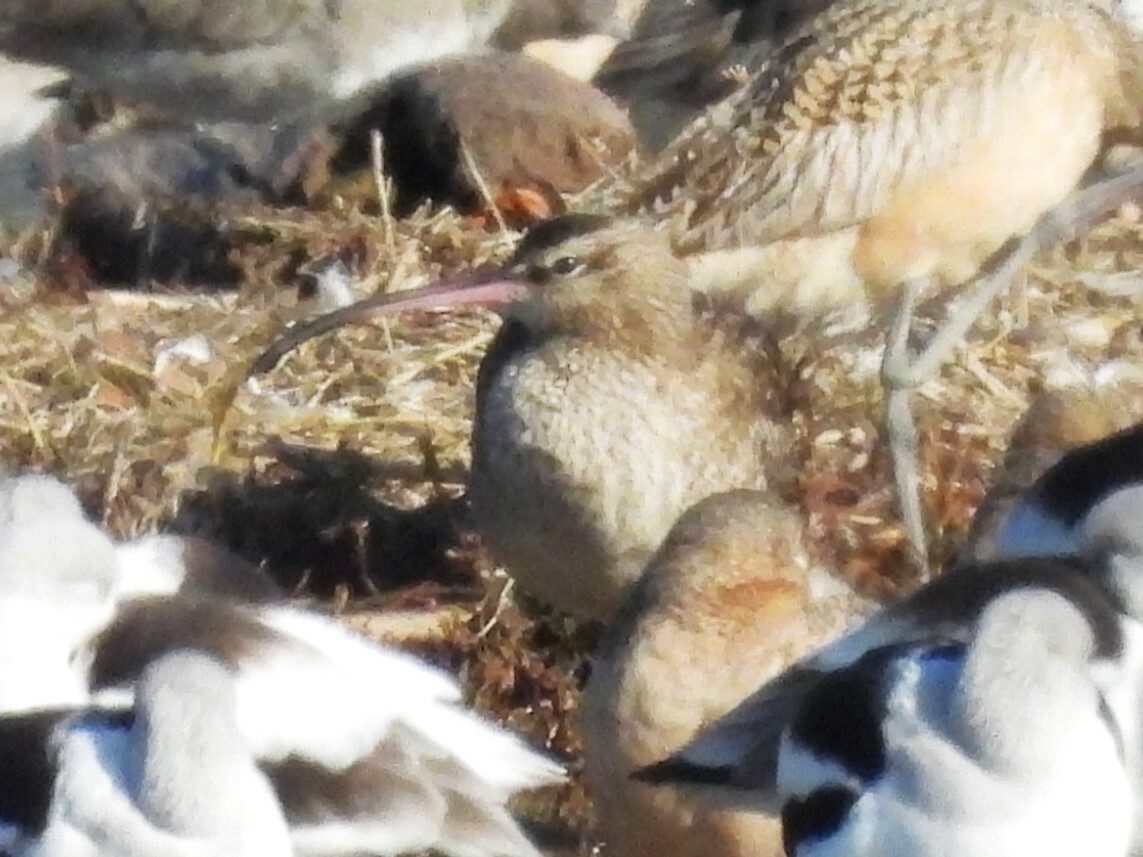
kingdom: Animalia
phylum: Chordata
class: Aves
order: Charadriiformes
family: Scolopacidae
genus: Numenius
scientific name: Numenius phaeopus
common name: Whimbrel
